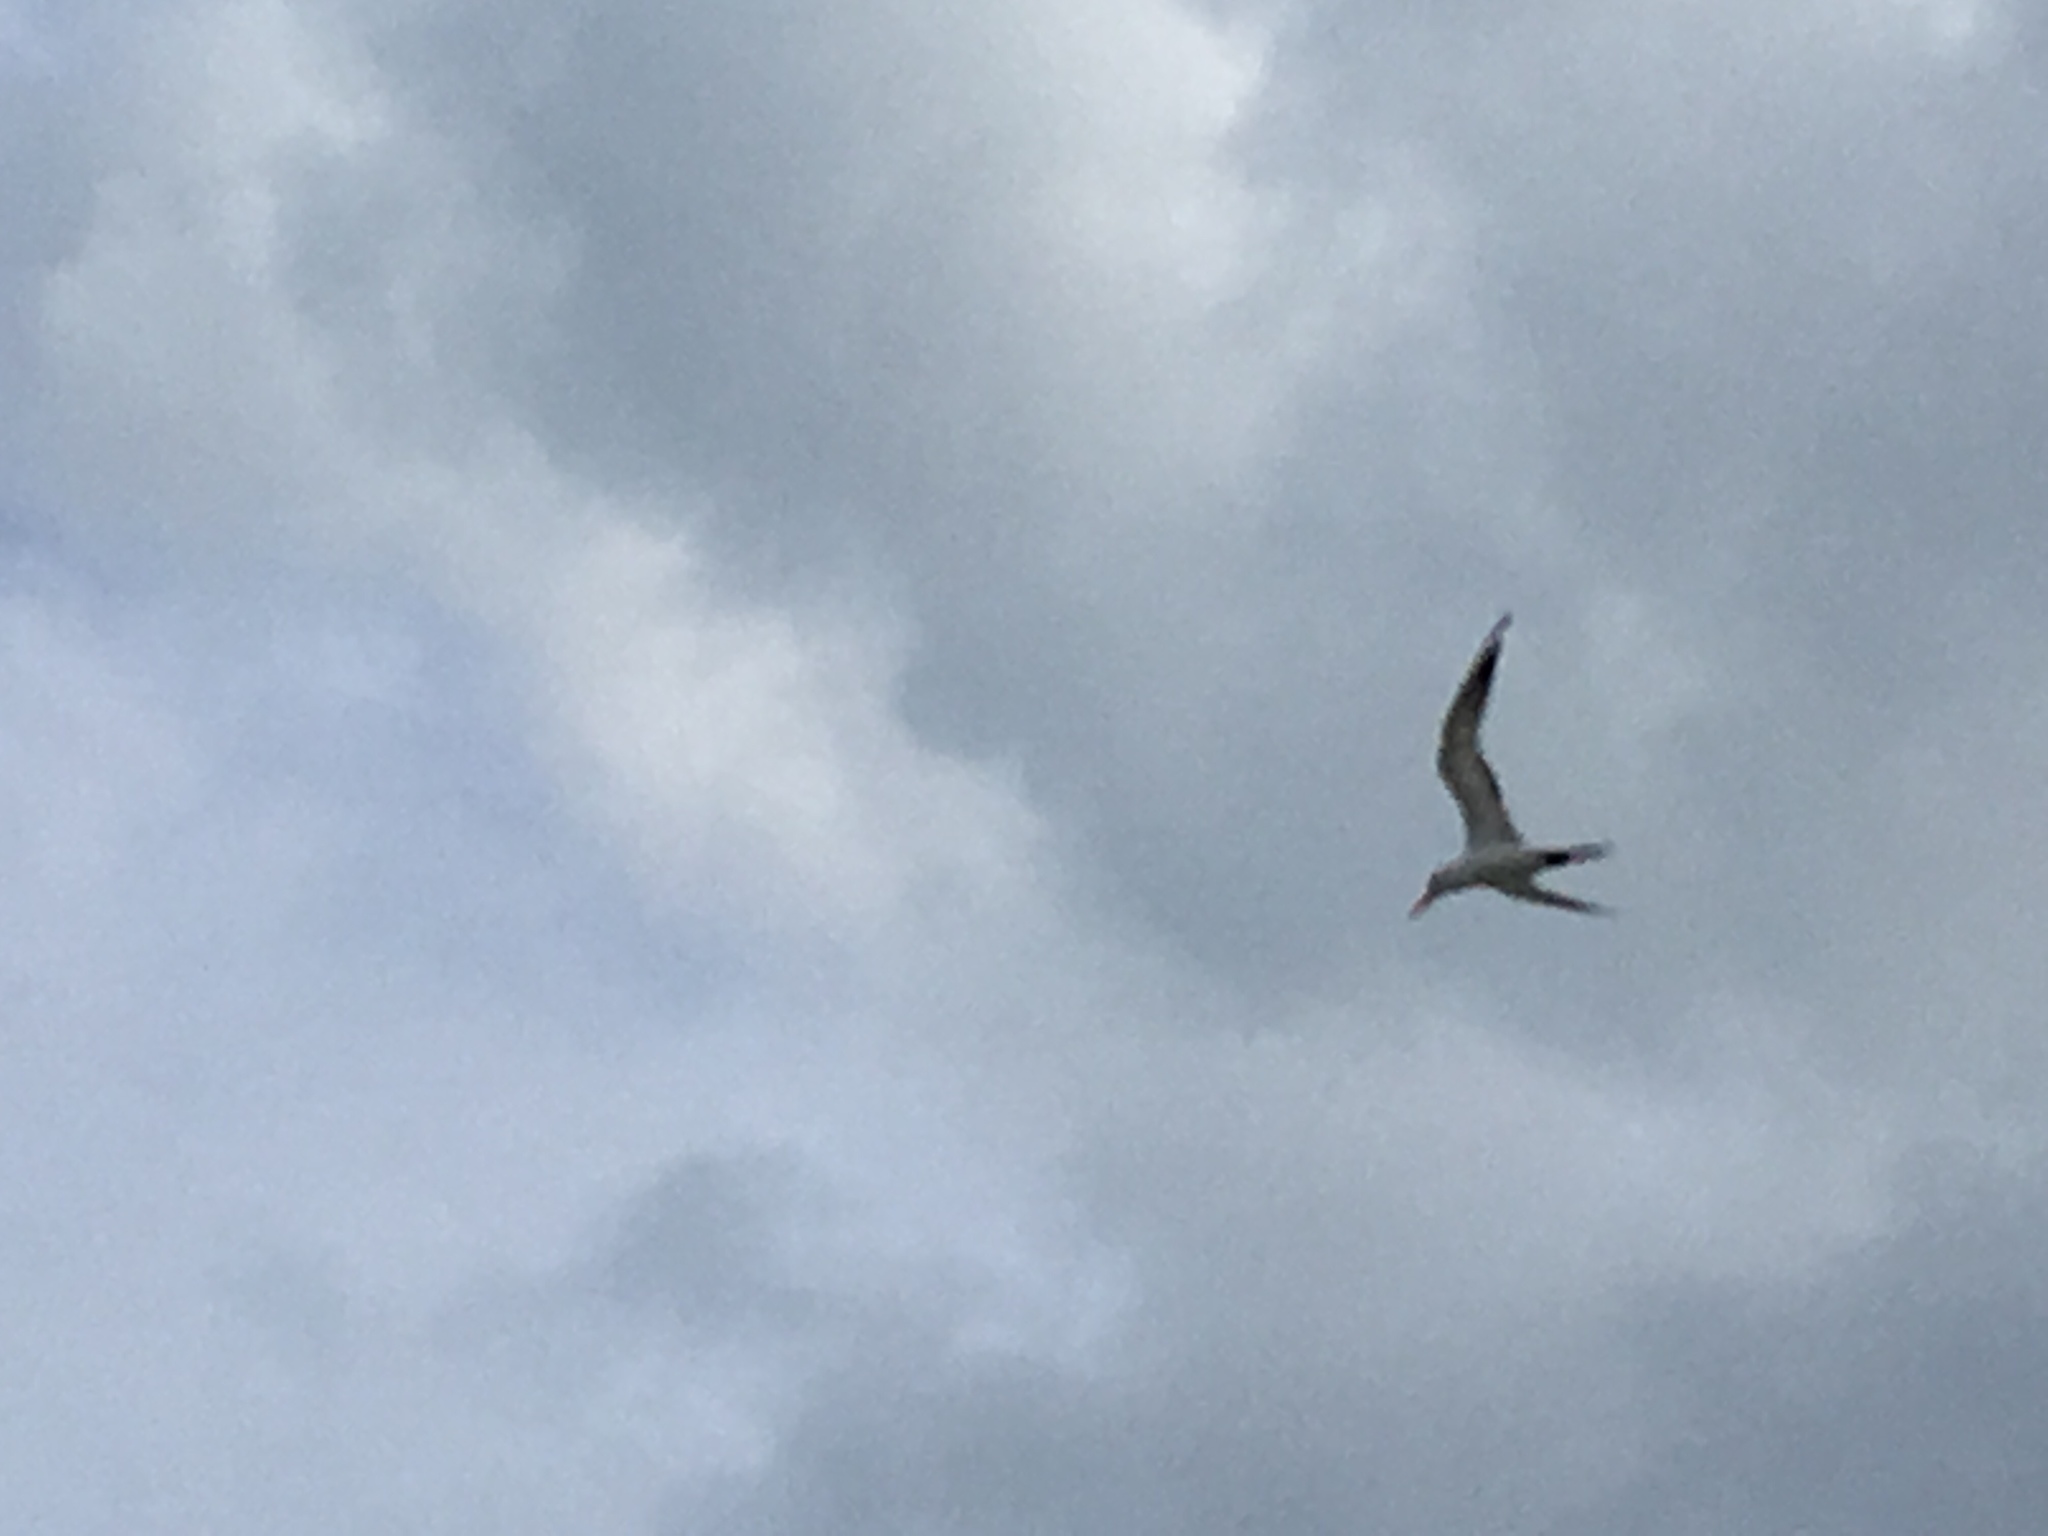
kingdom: Animalia
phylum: Chordata
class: Aves
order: Charadriiformes
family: Laridae
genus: Thalasseus
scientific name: Thalasseus maximus
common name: Royal tern
